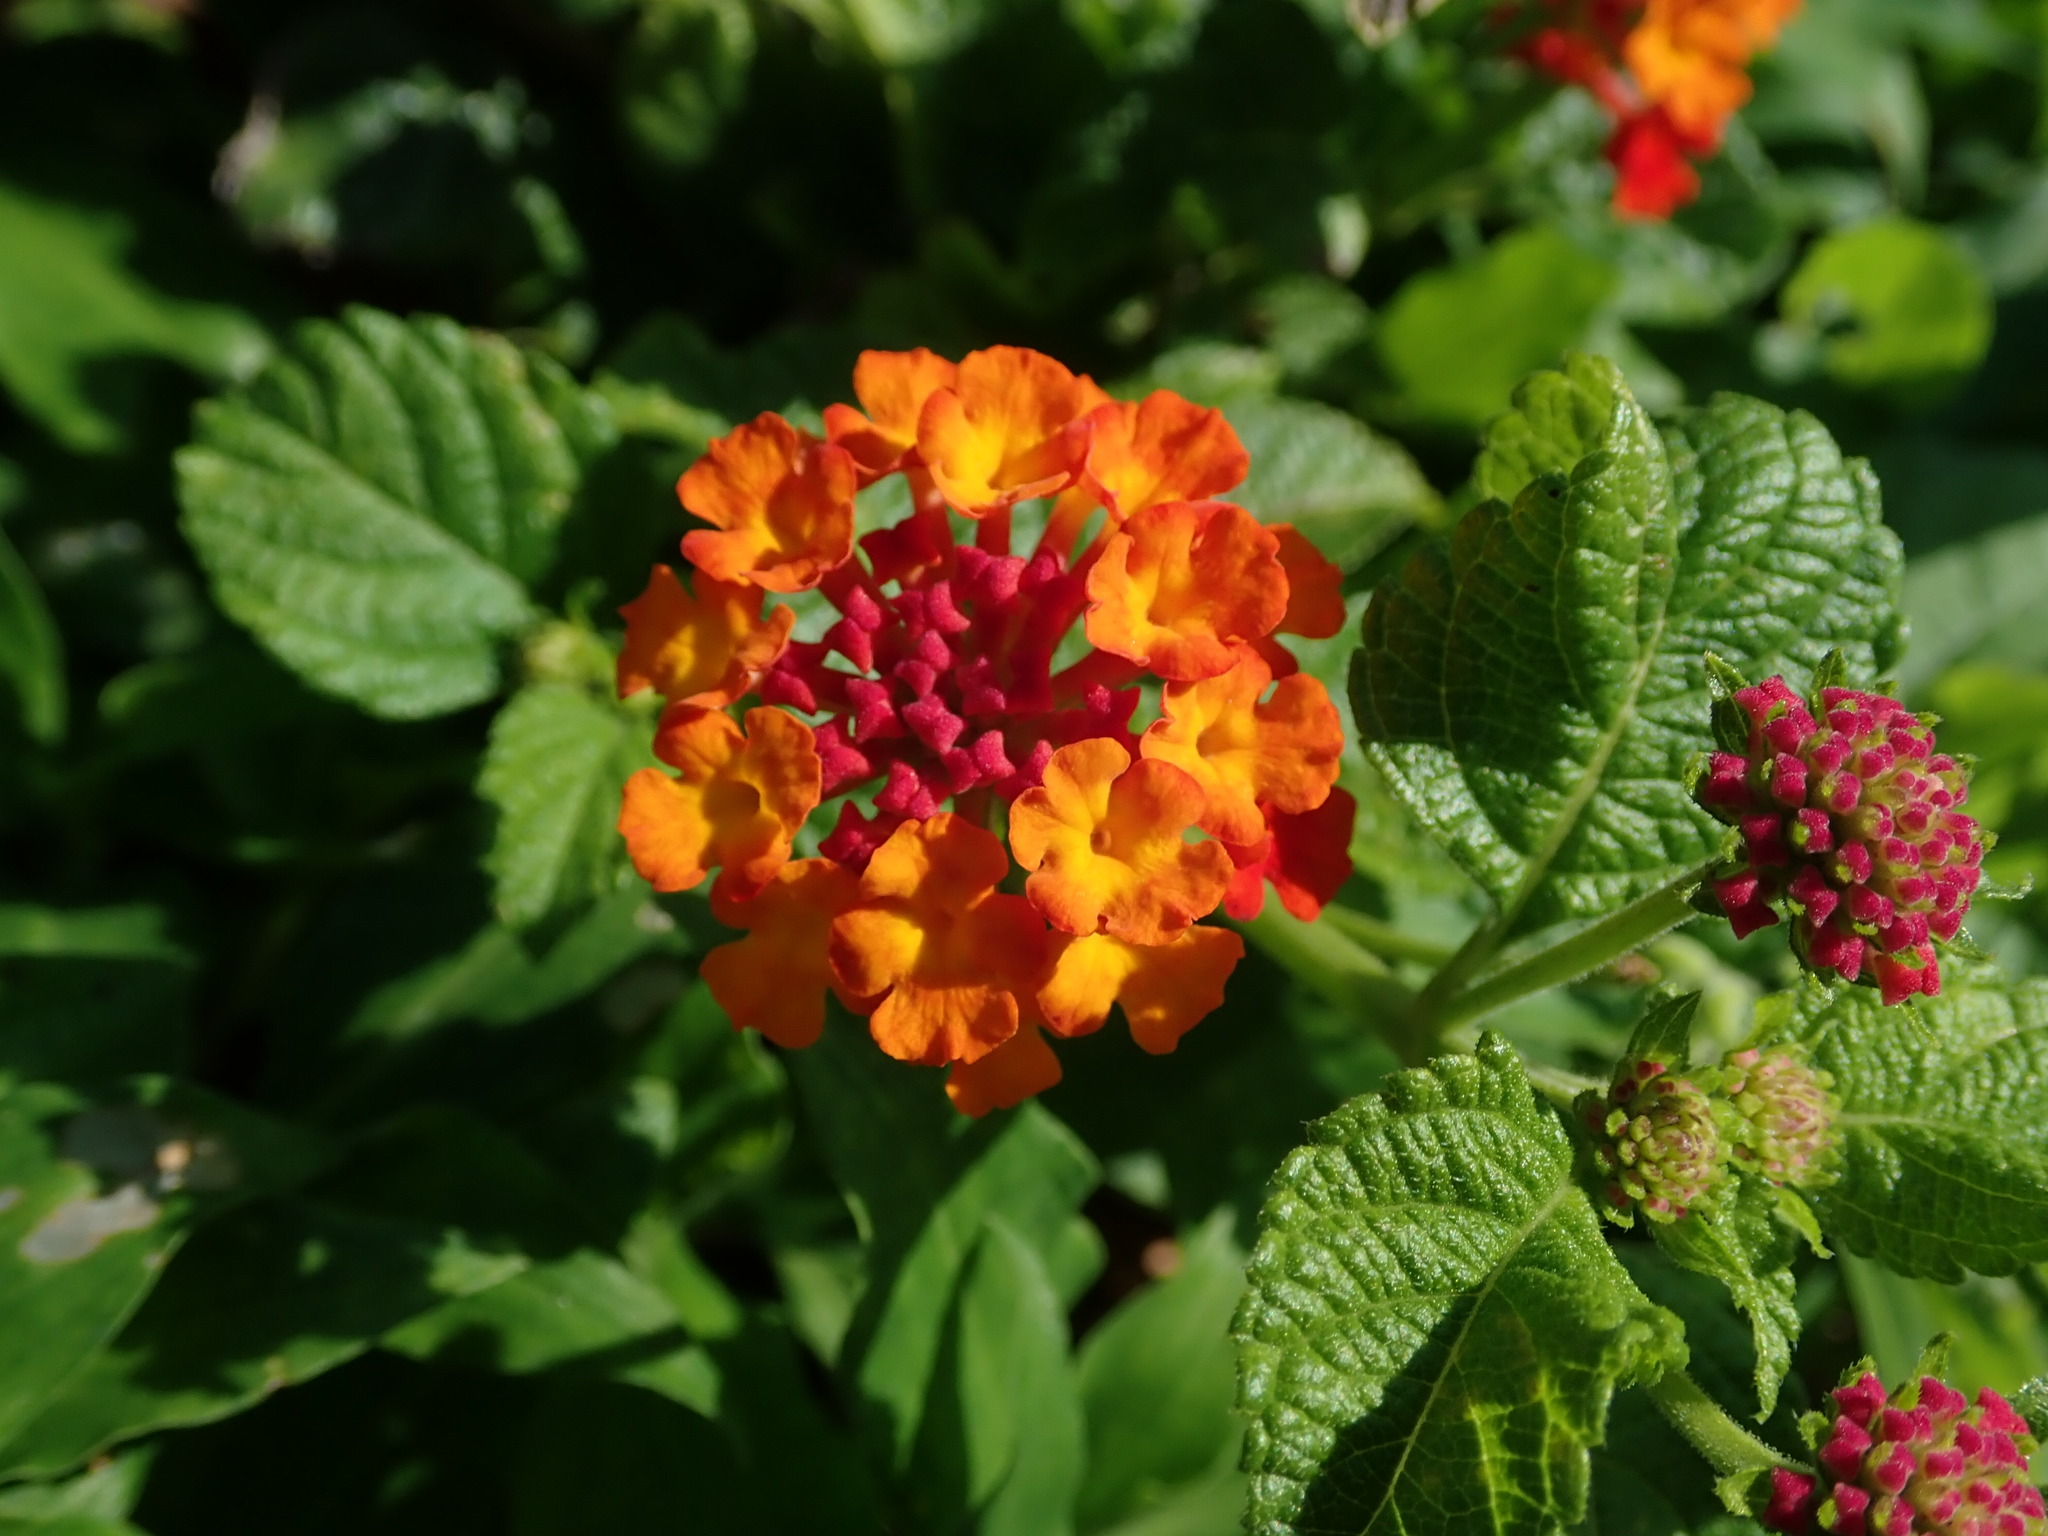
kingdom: Plantae
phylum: Tracheophyta
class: Magnoliopsida
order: Lamiales
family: Verbenaceae
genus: Lantana
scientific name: Lantana camara
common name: Lantana
